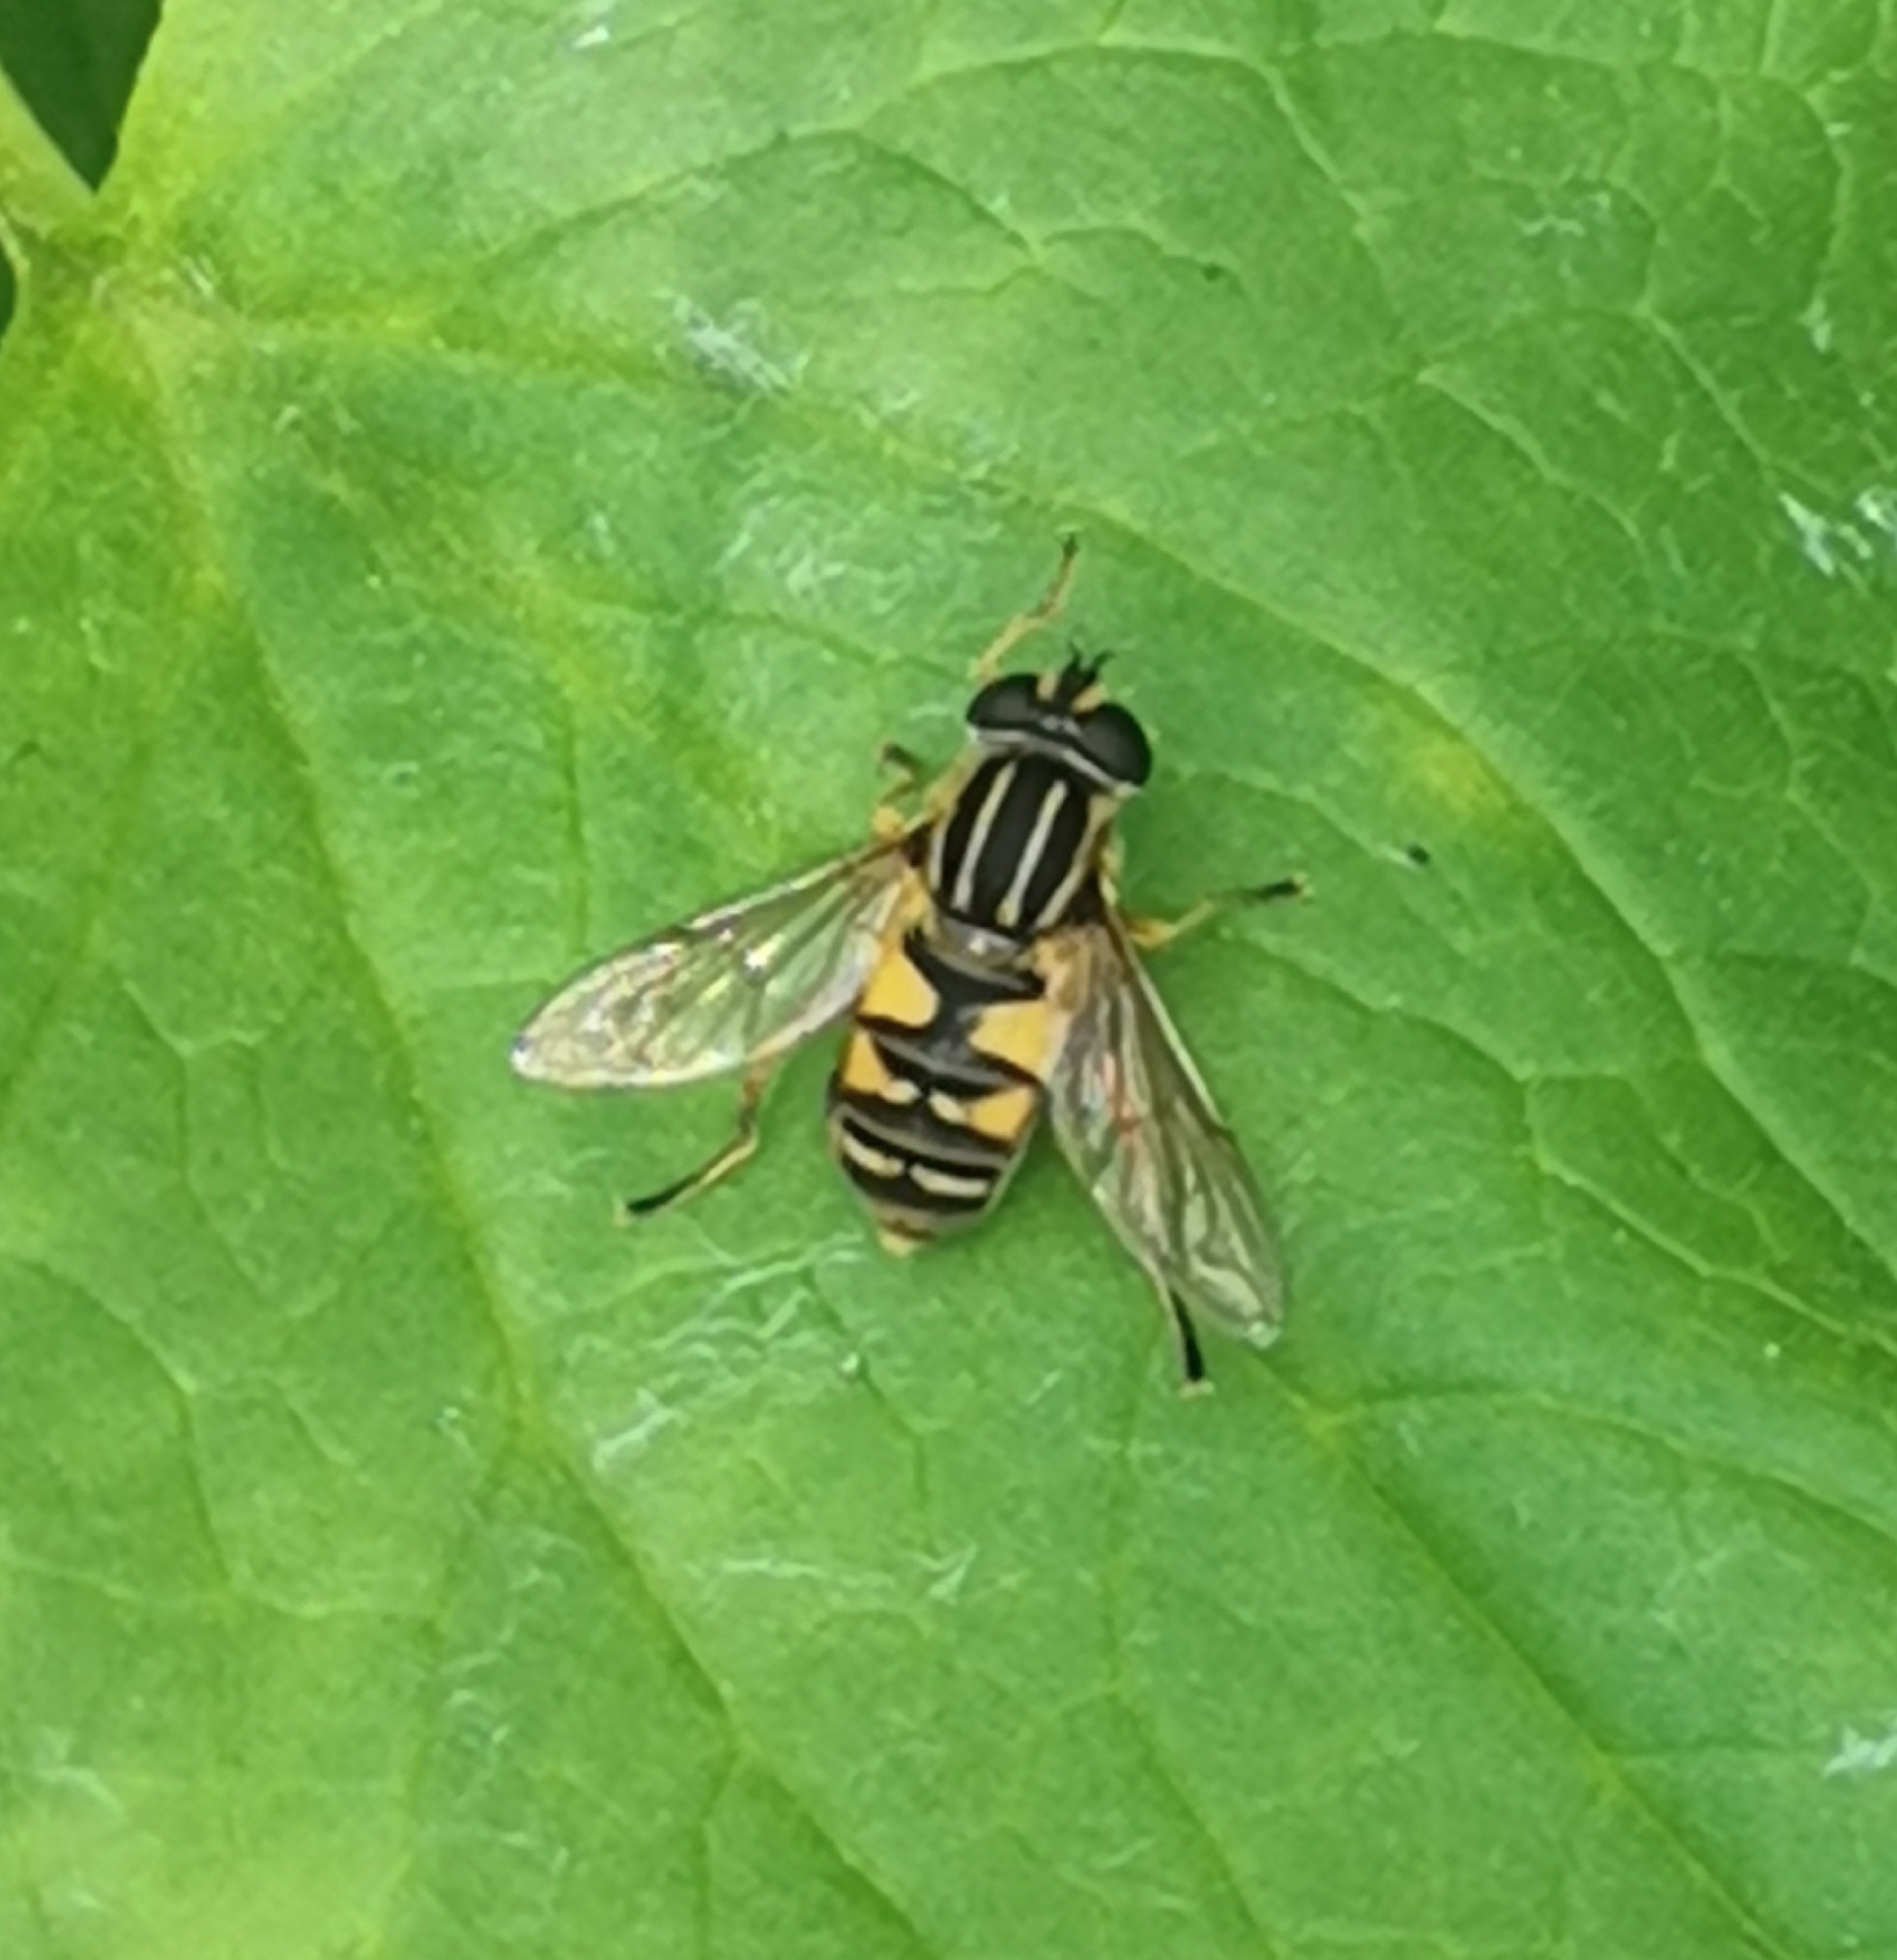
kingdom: Animalia
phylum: Arthropoda
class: Insecta
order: Diptera
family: Syrphidae
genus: Helophilus
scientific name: Helophilus pendulus
